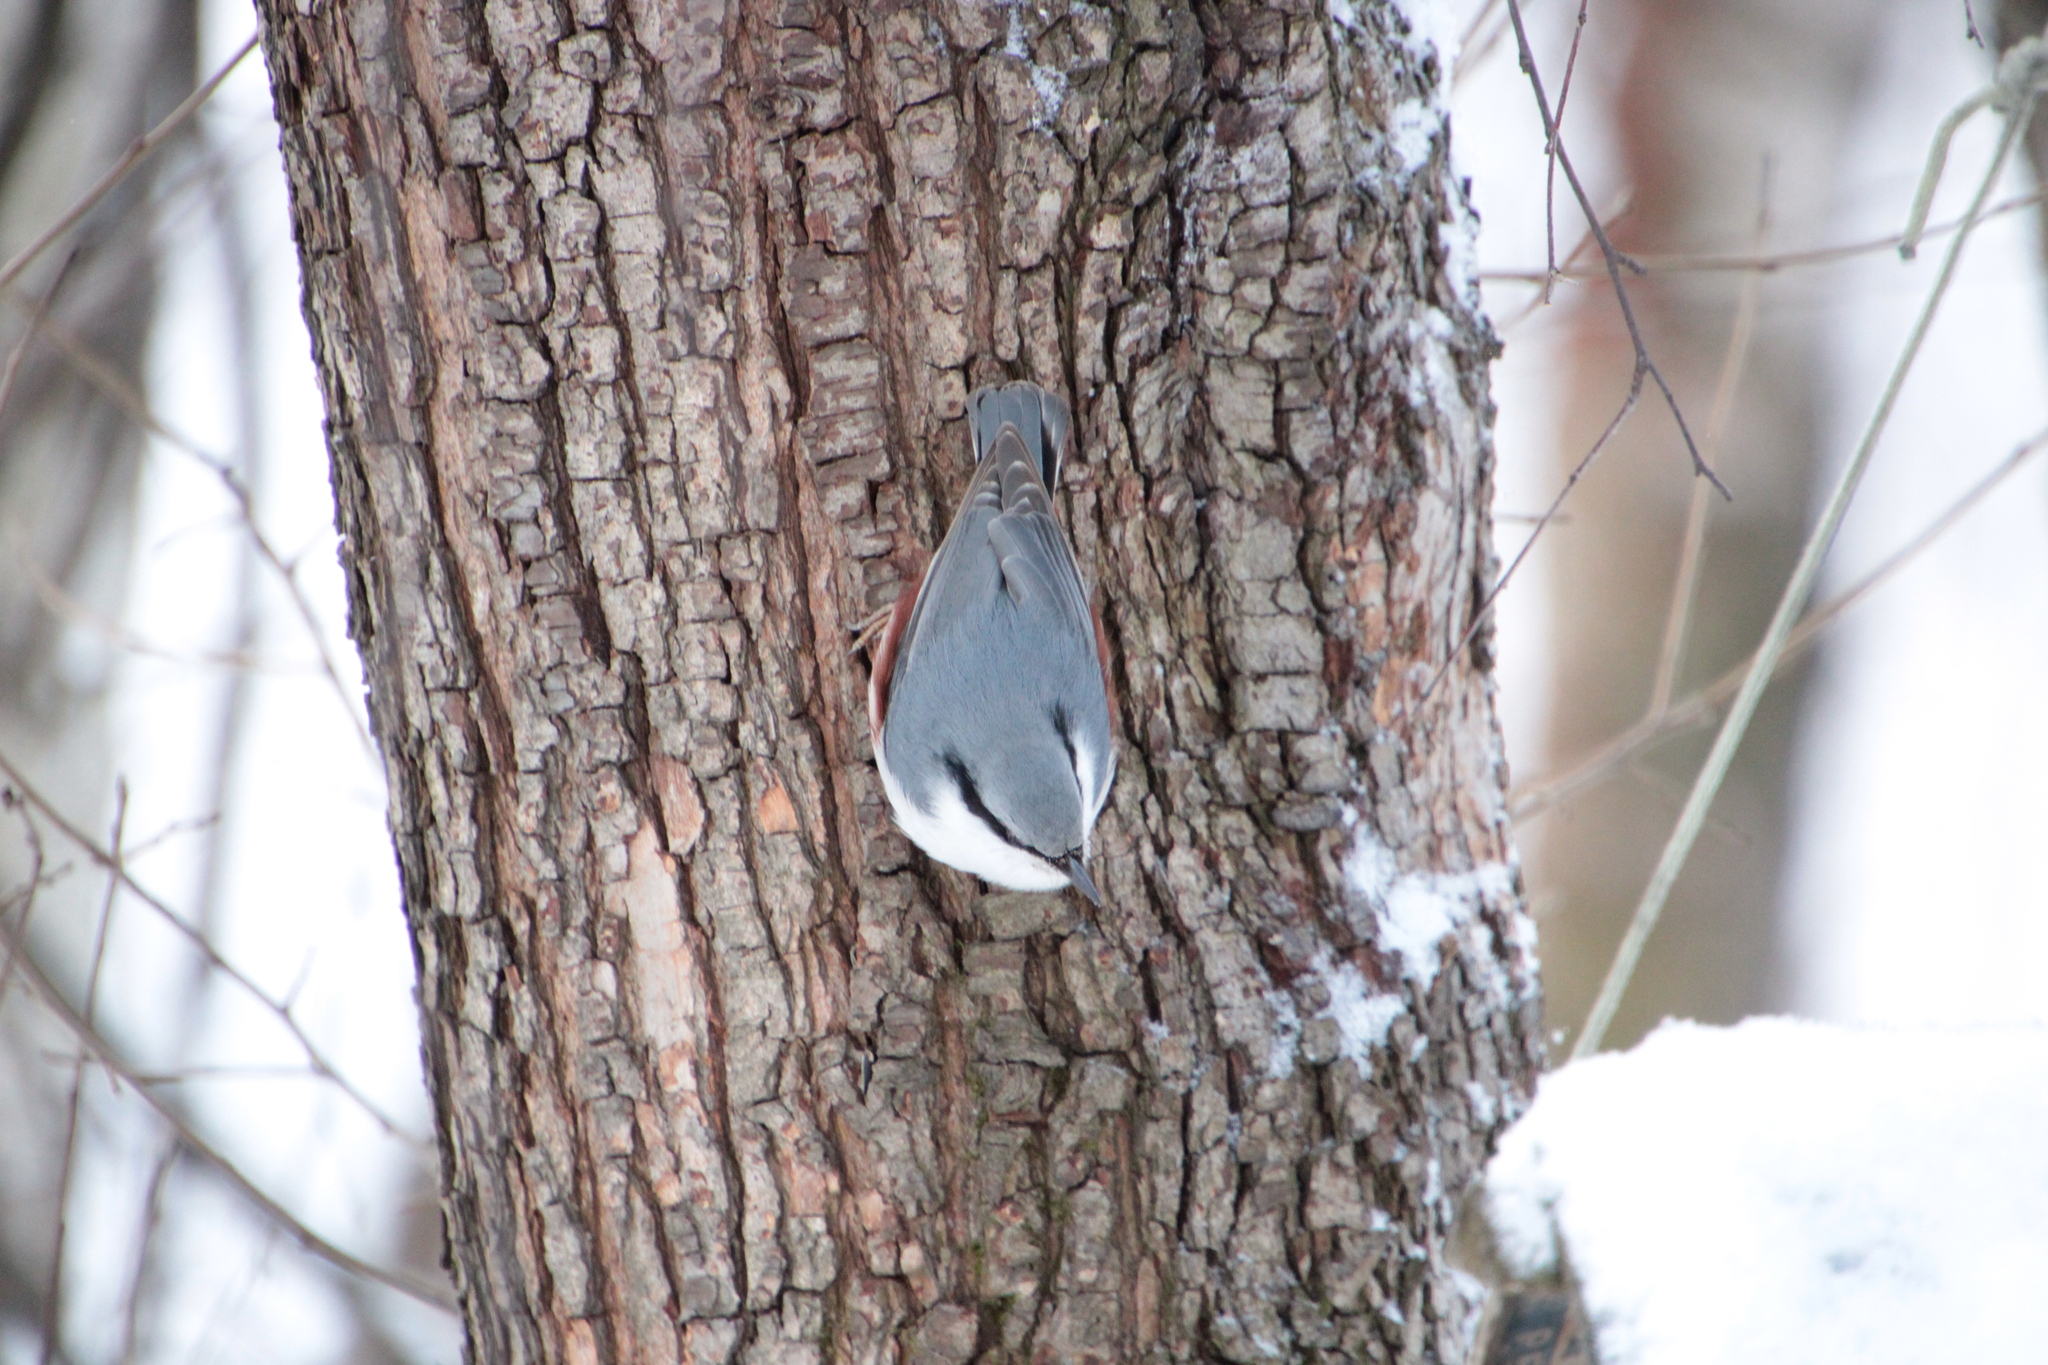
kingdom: Animalia
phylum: Chordata
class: Aves
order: Passeriformes
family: Sittidae
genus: Sitta
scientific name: Sitta europaea
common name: Eurasian nuthatch
